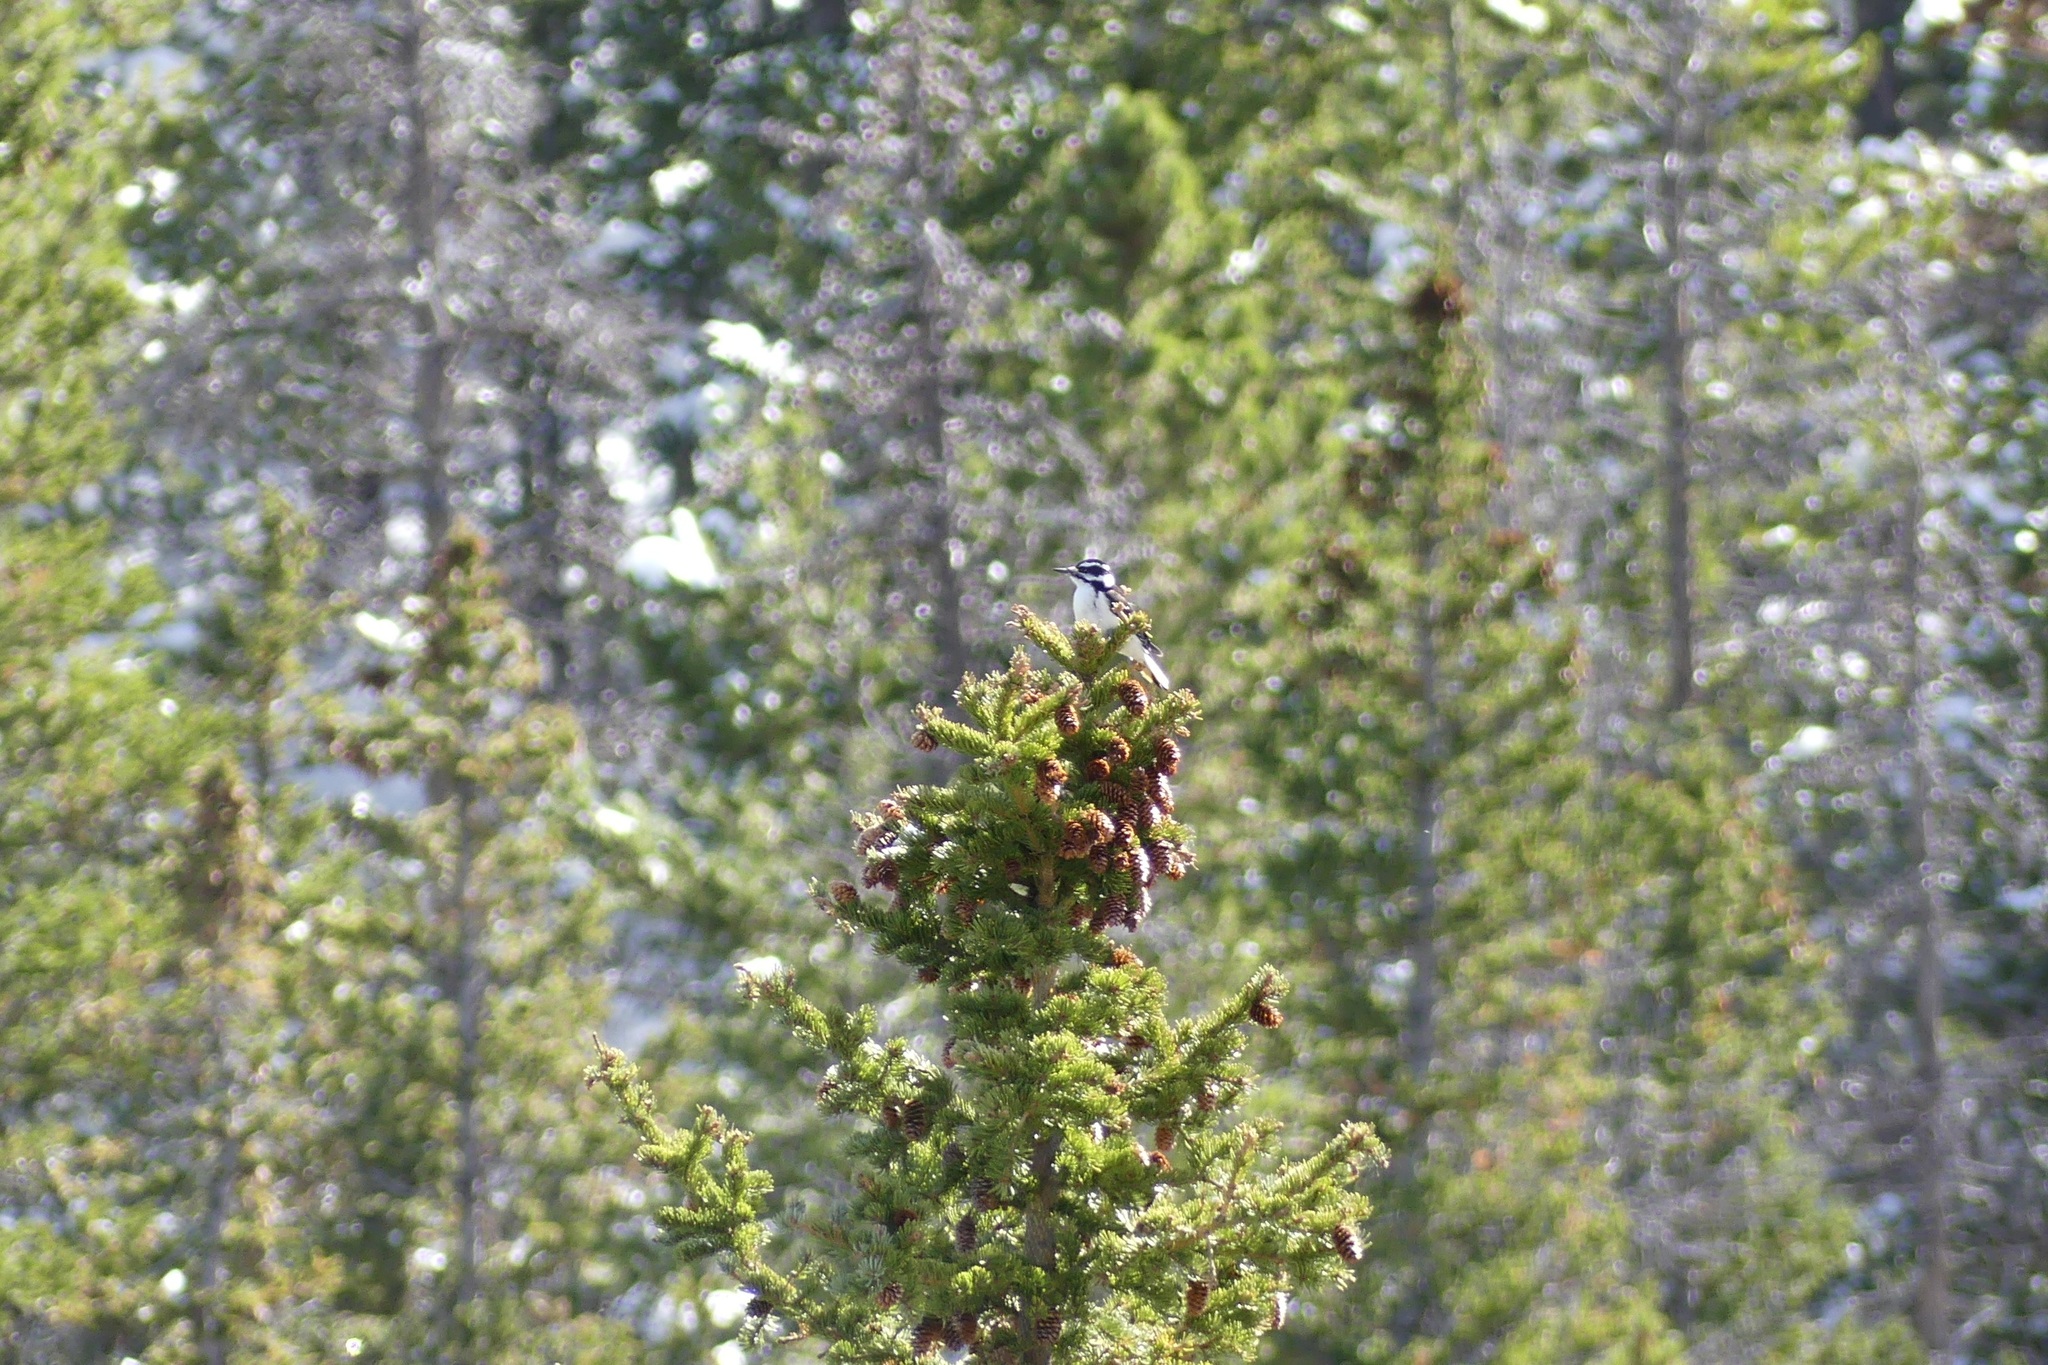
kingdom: Animalia
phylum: Chordata
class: Aves
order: Piciformes
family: Picidae
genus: Leuconotopicus
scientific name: Leuconotopicus villosus
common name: Hairy woodpecker
